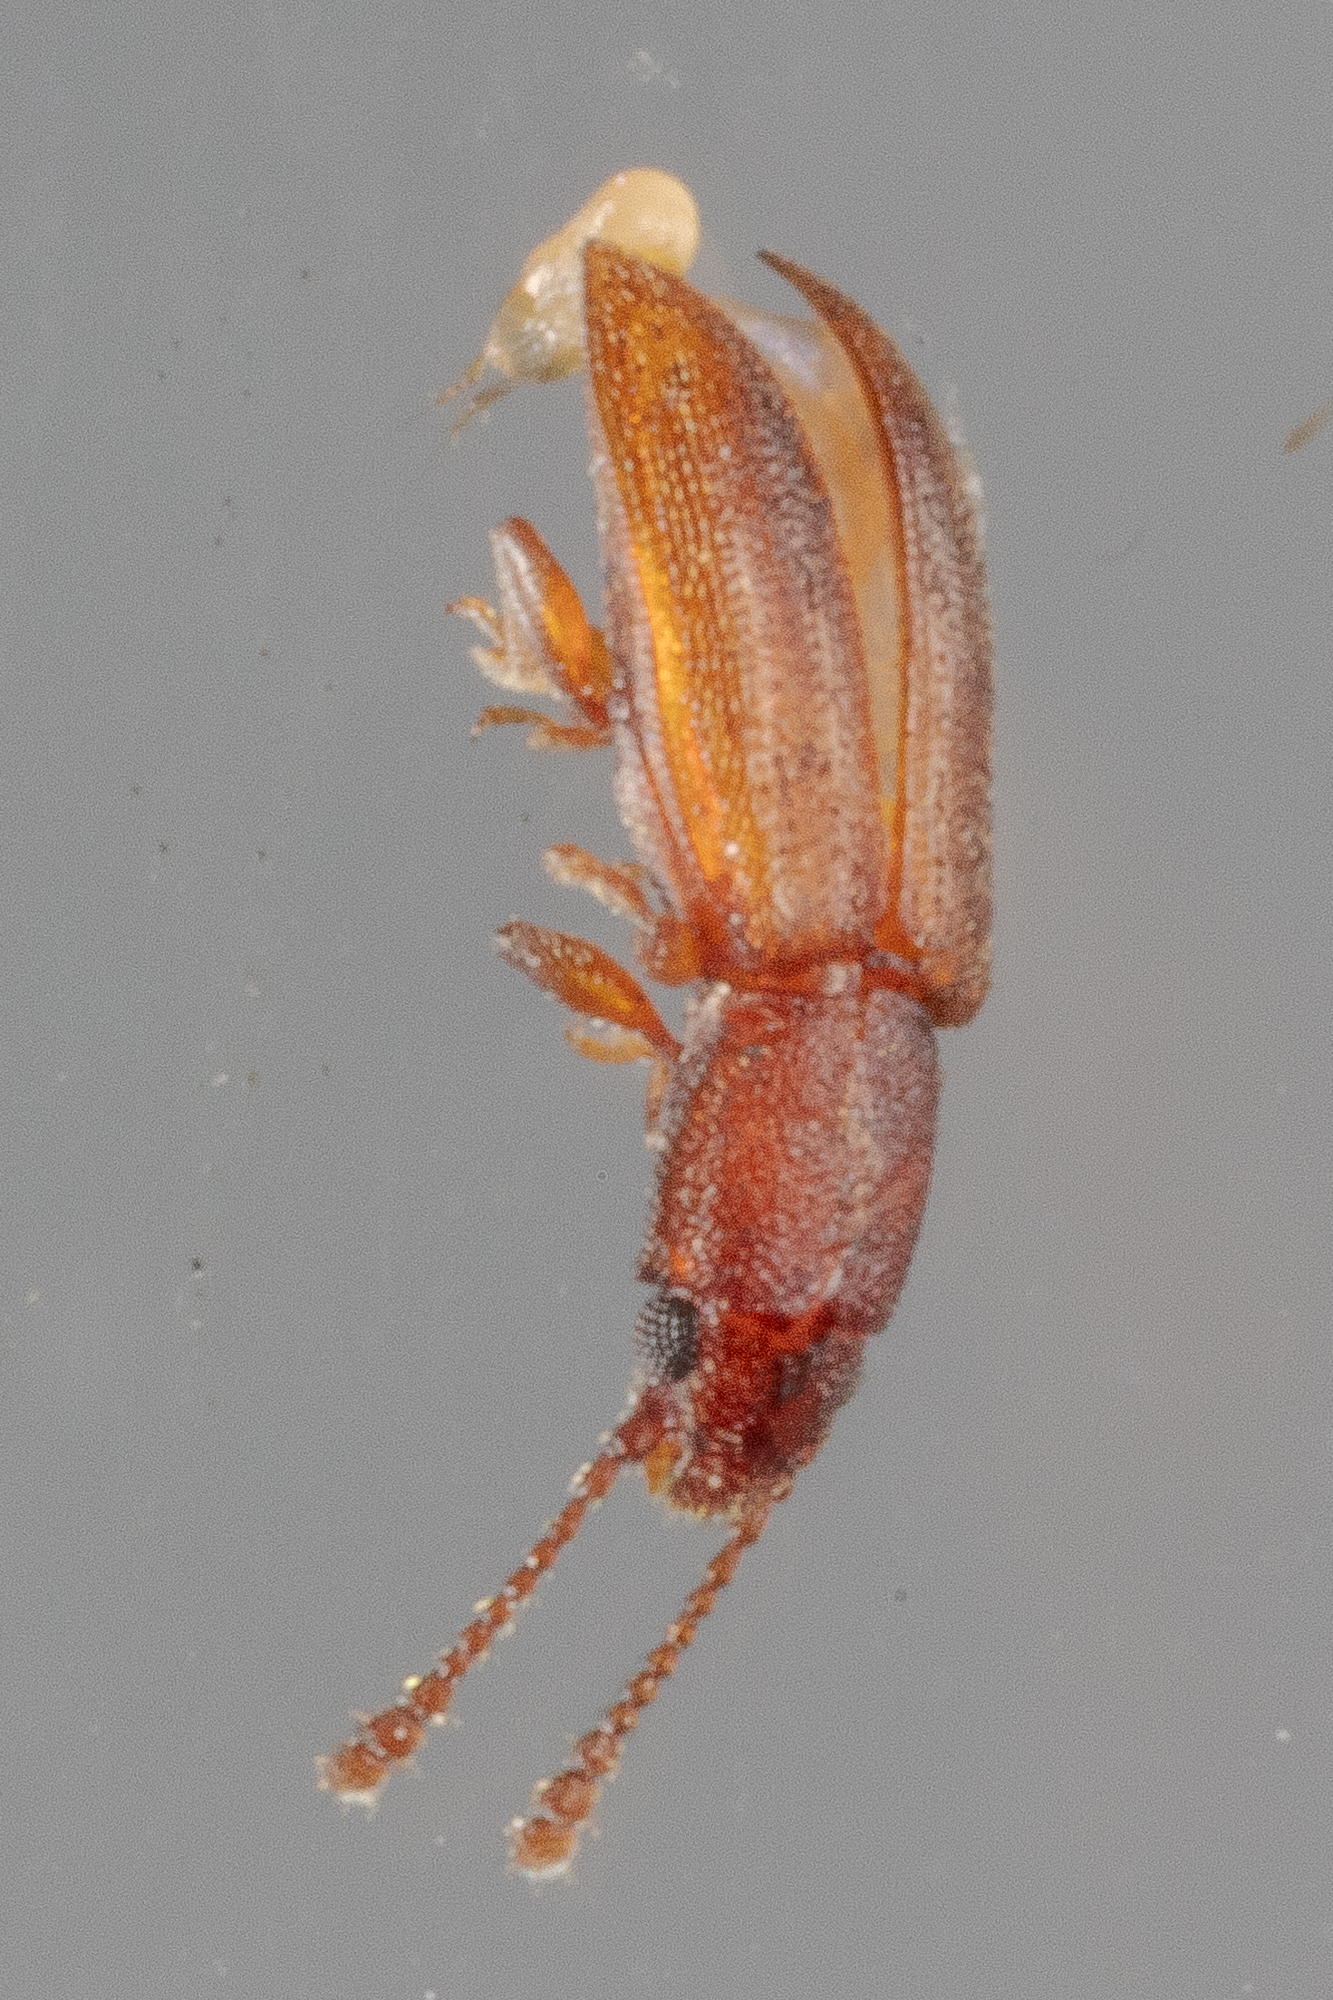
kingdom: Animalia
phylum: Arthropoda
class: Insecta
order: Coleoptera
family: Silvanidae
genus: Ahasverus
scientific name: Ahasverus rectus
